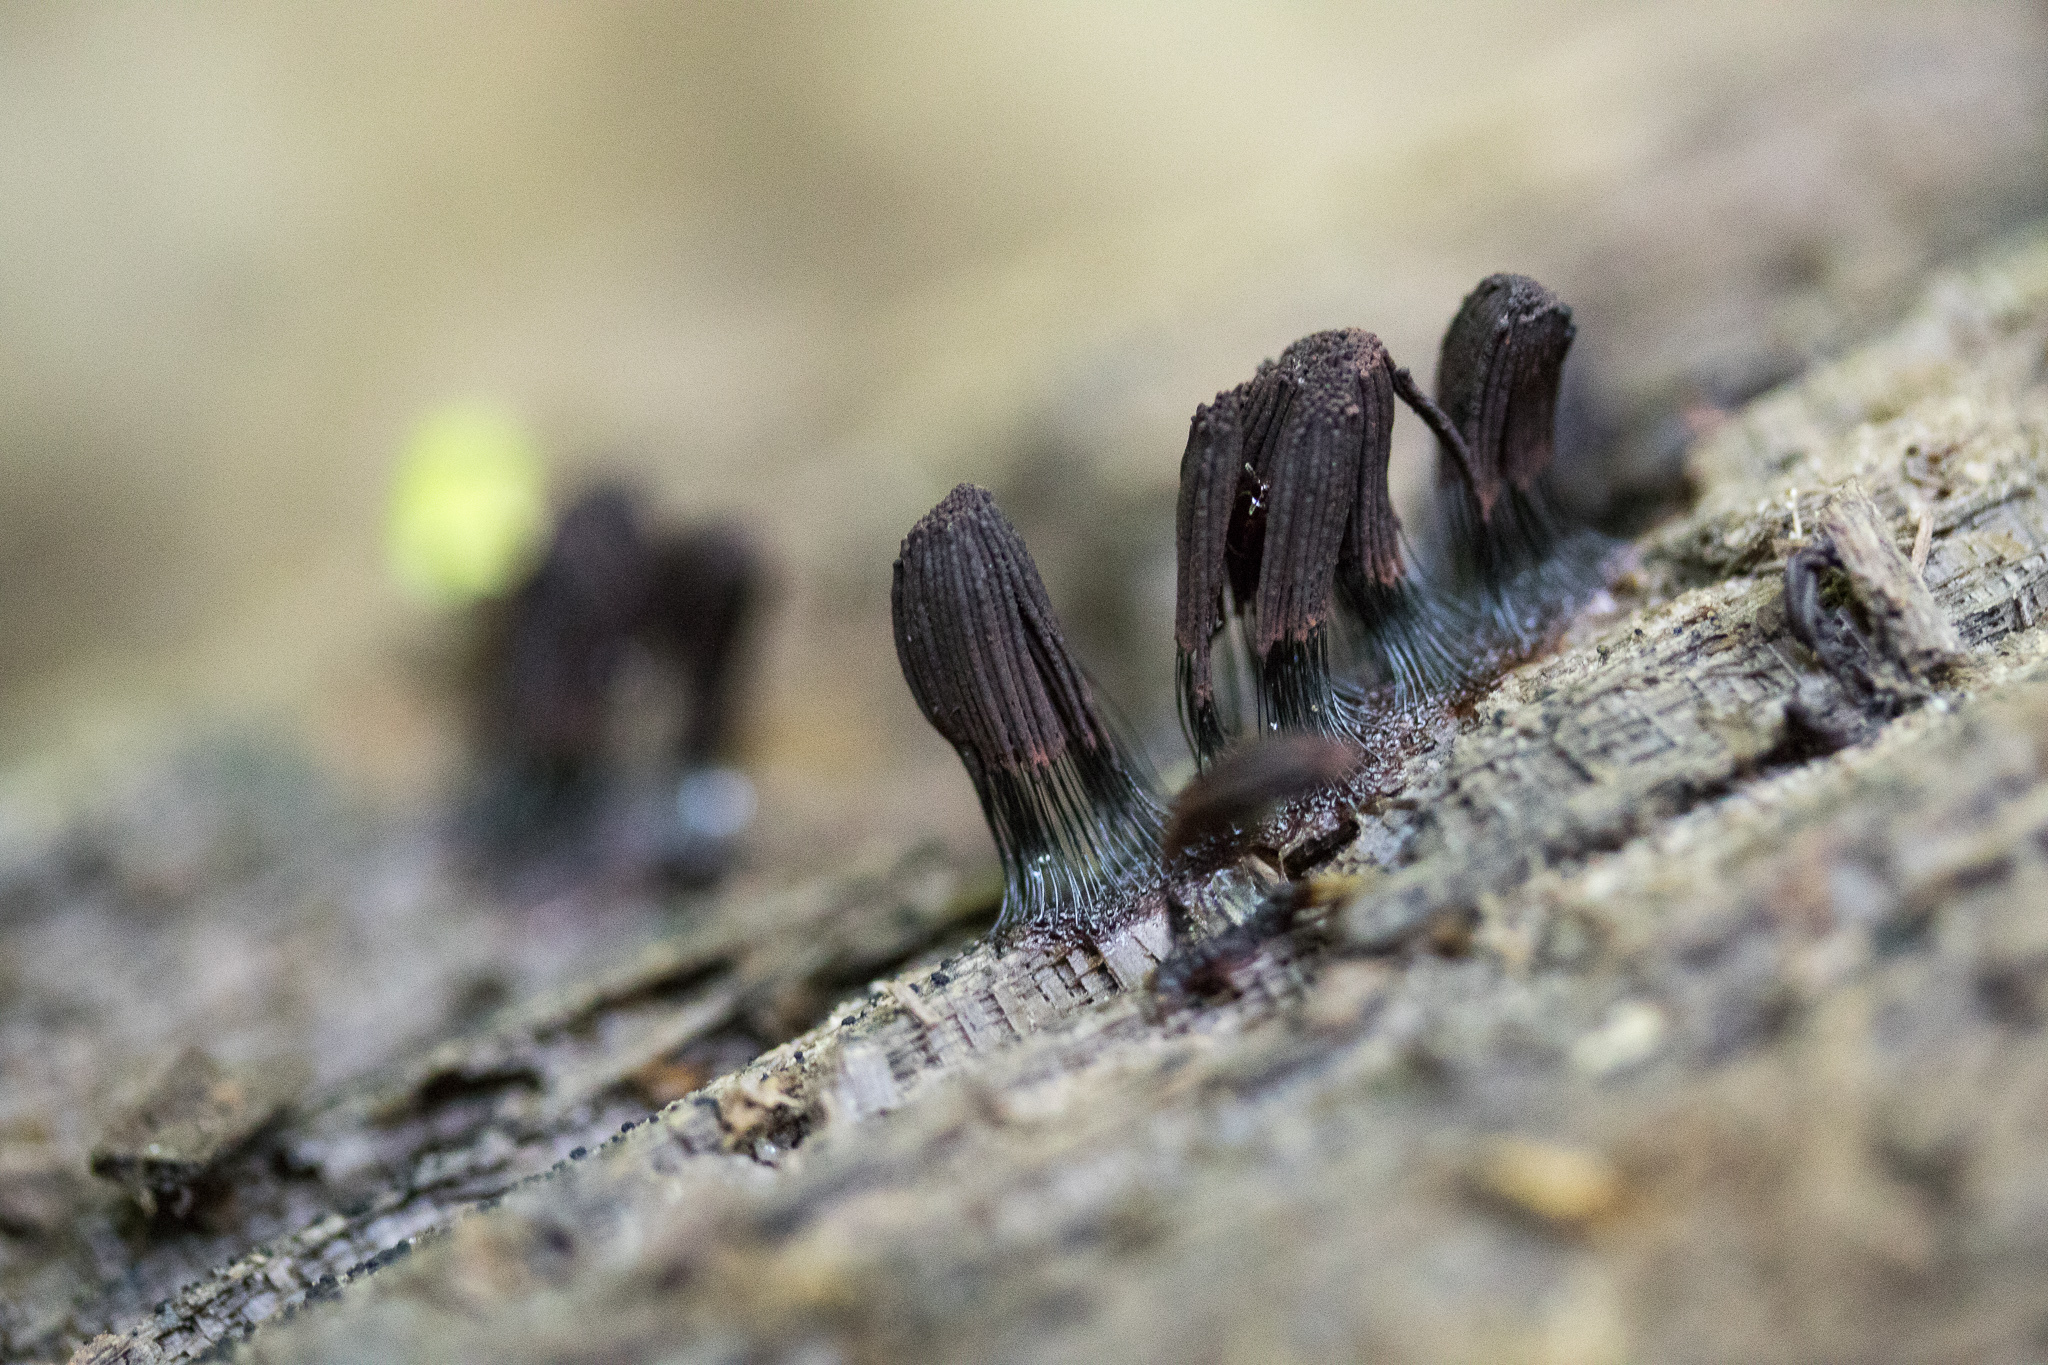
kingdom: Protozoa
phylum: Mycetozoa
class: Myxomycetes
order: Stemonitidales
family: Stemonitidaceae
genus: Stemonitis
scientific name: Stemonitis splendens
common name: Chocolate tube slime
